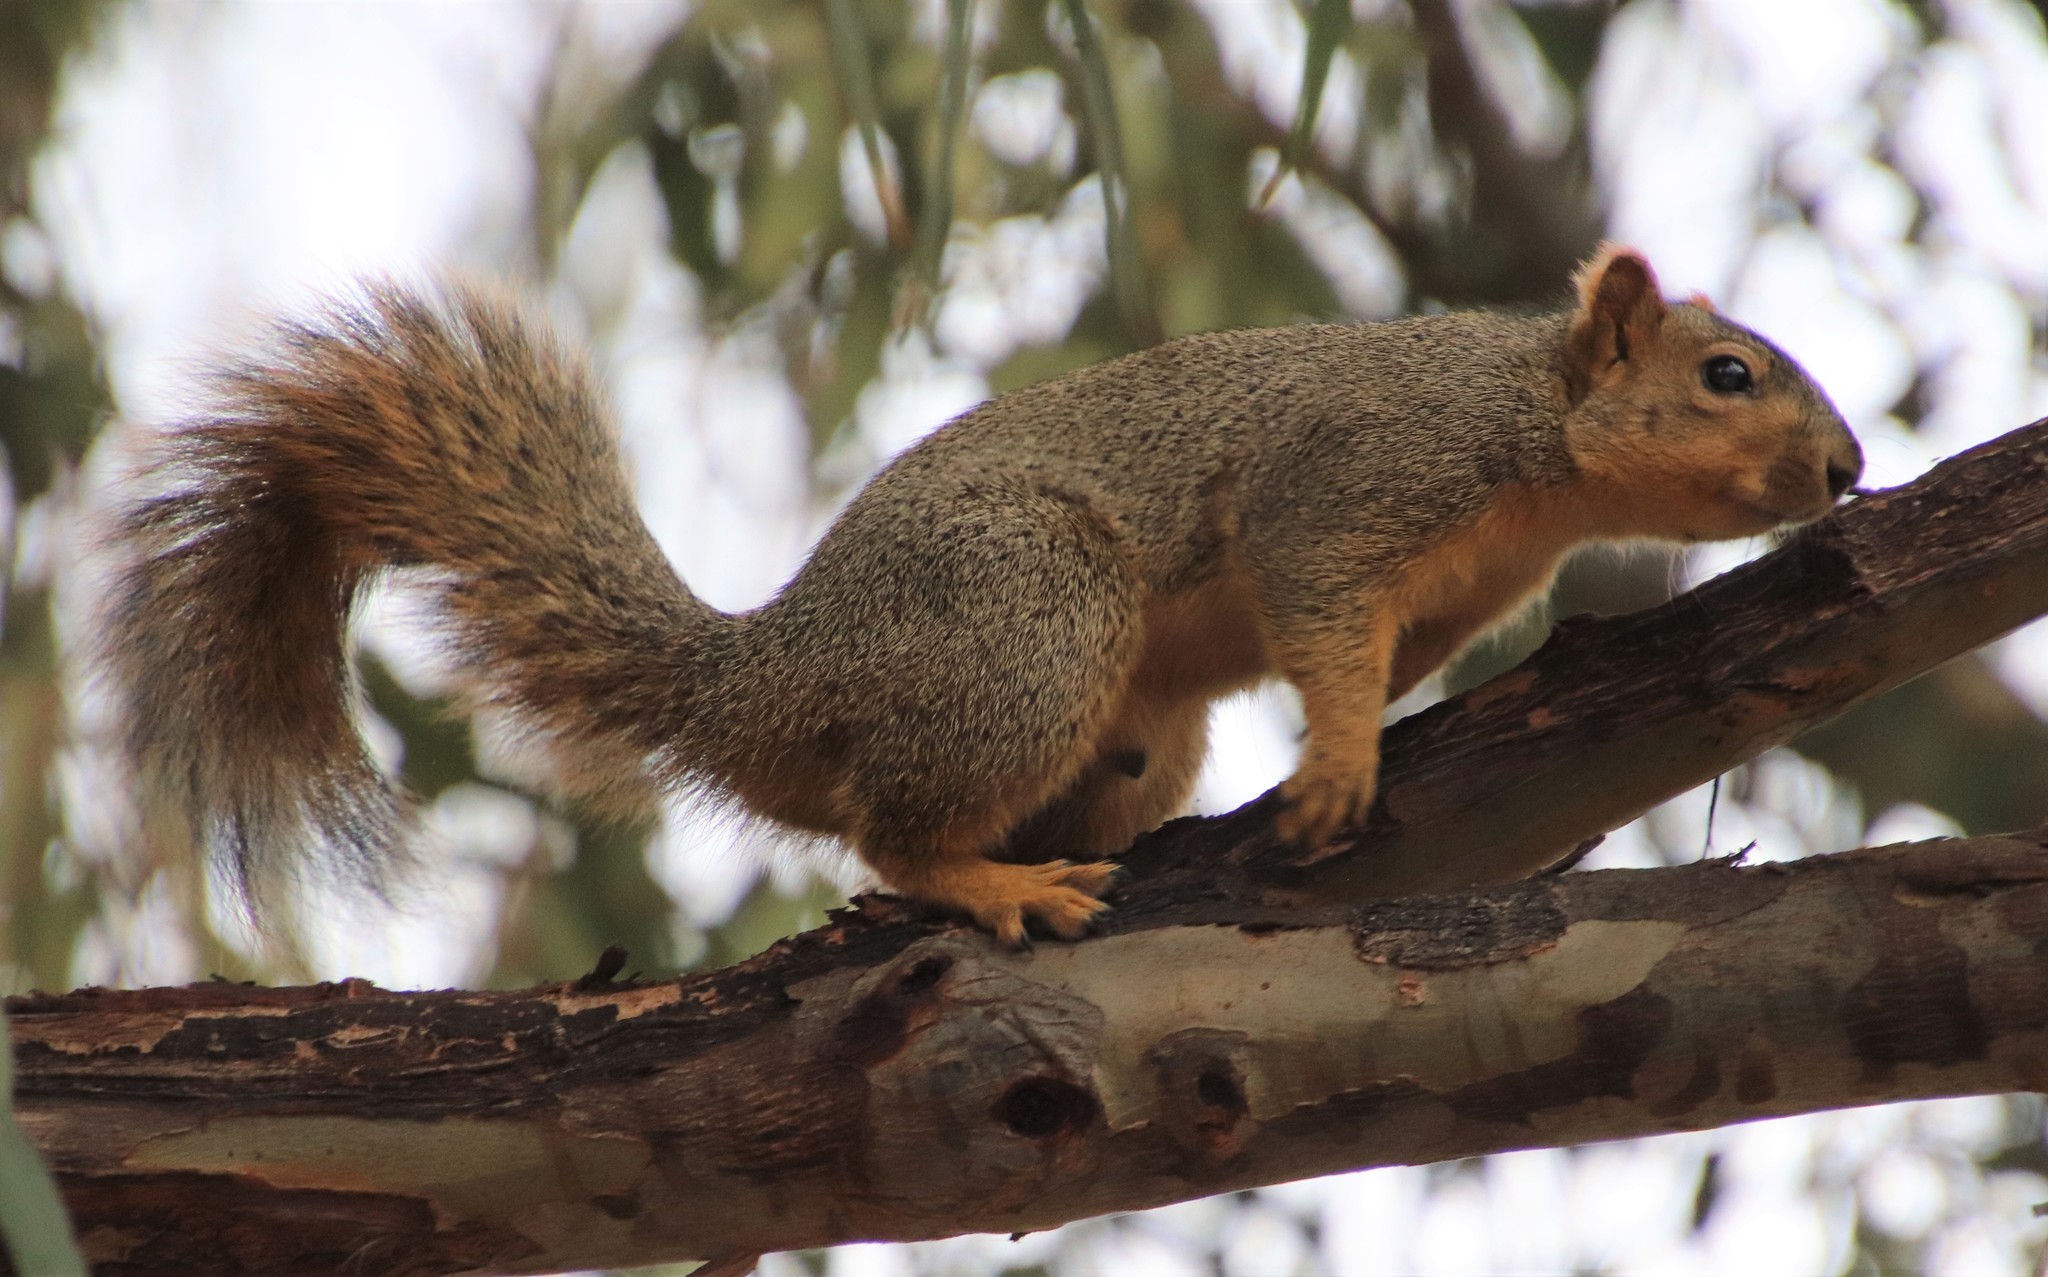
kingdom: Animalia
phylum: Chordata
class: Mammalia
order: Rodentia
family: Sciuridae
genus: Sciurus
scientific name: Sciurus niger
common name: Fox squirrel
